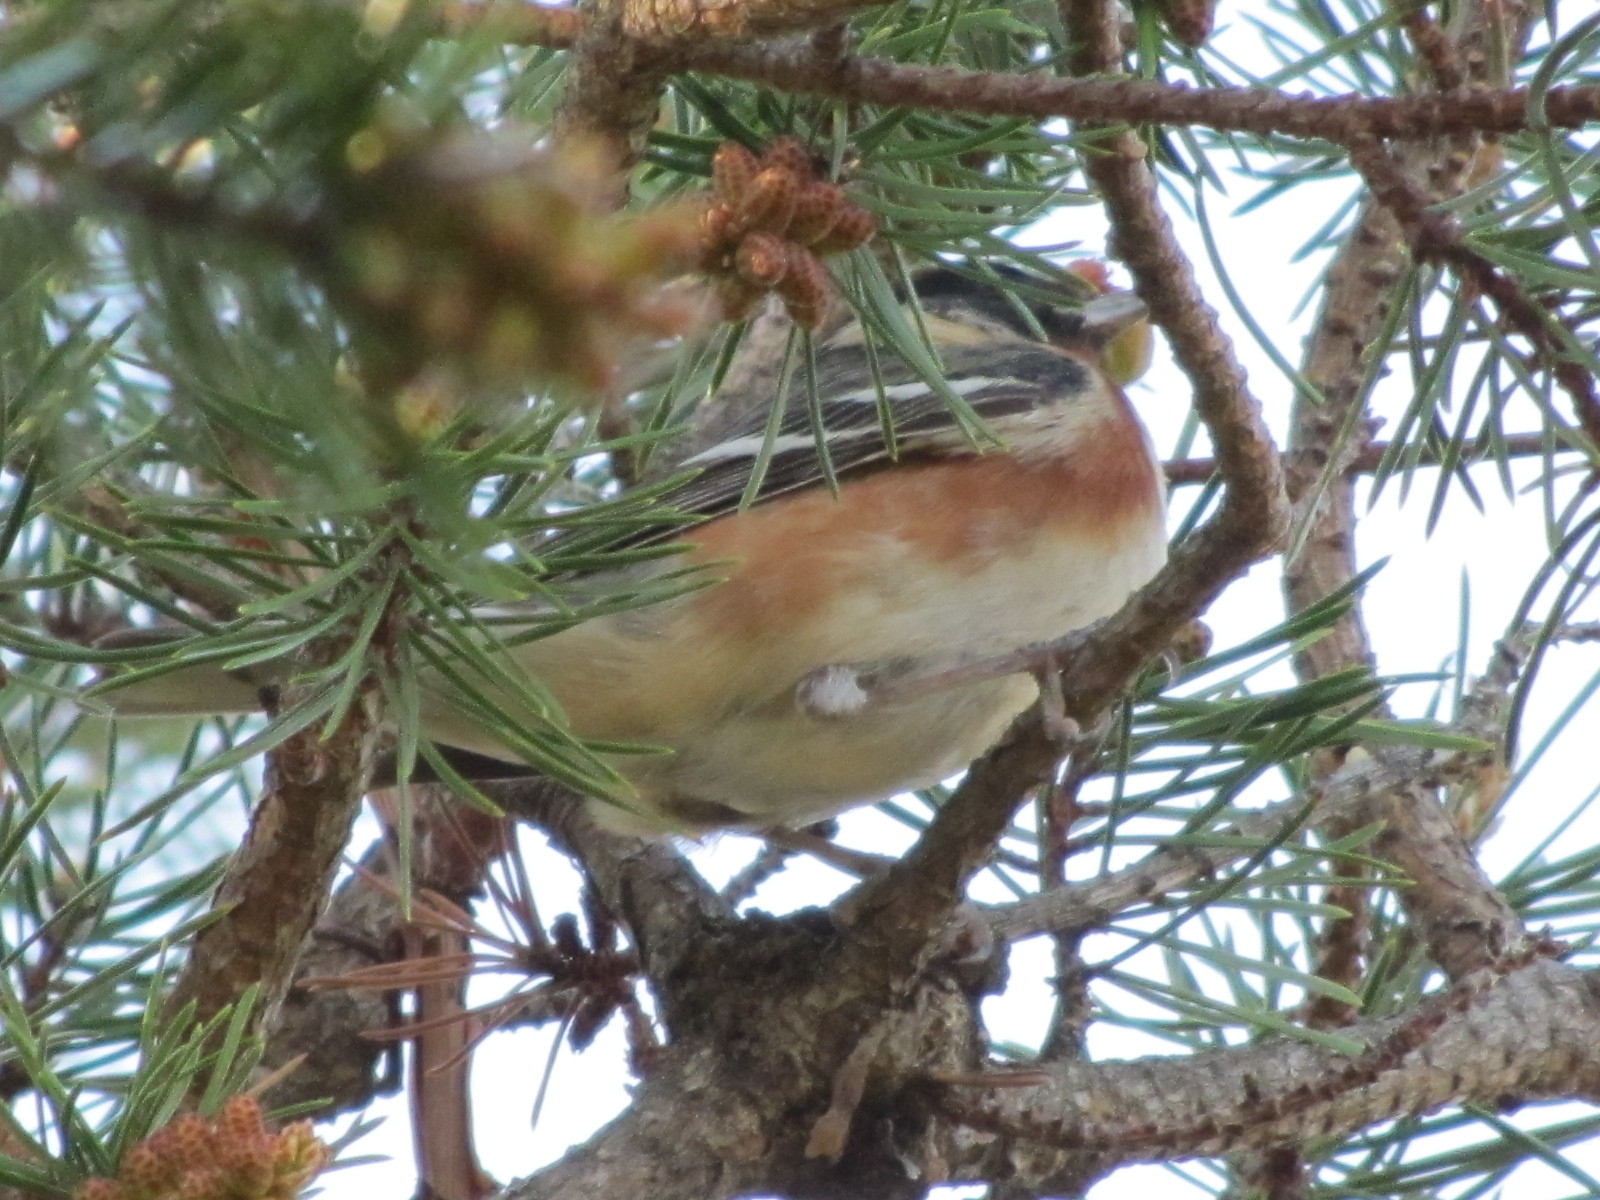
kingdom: Animalia
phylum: Chordata
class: Aves
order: Passeriformes
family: Parulidae
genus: Setophaga
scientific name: Setophaga castanea
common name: Bay-breasted warbler
